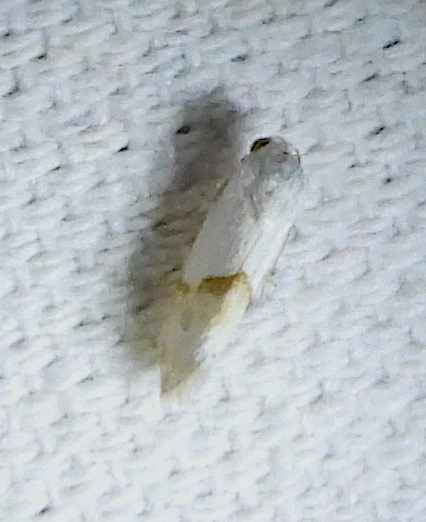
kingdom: Animalia
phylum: Arthropoda
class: Insecta
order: Lepidoptera
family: Noctuidae
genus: Ponometia
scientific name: Ponometia elegantula
